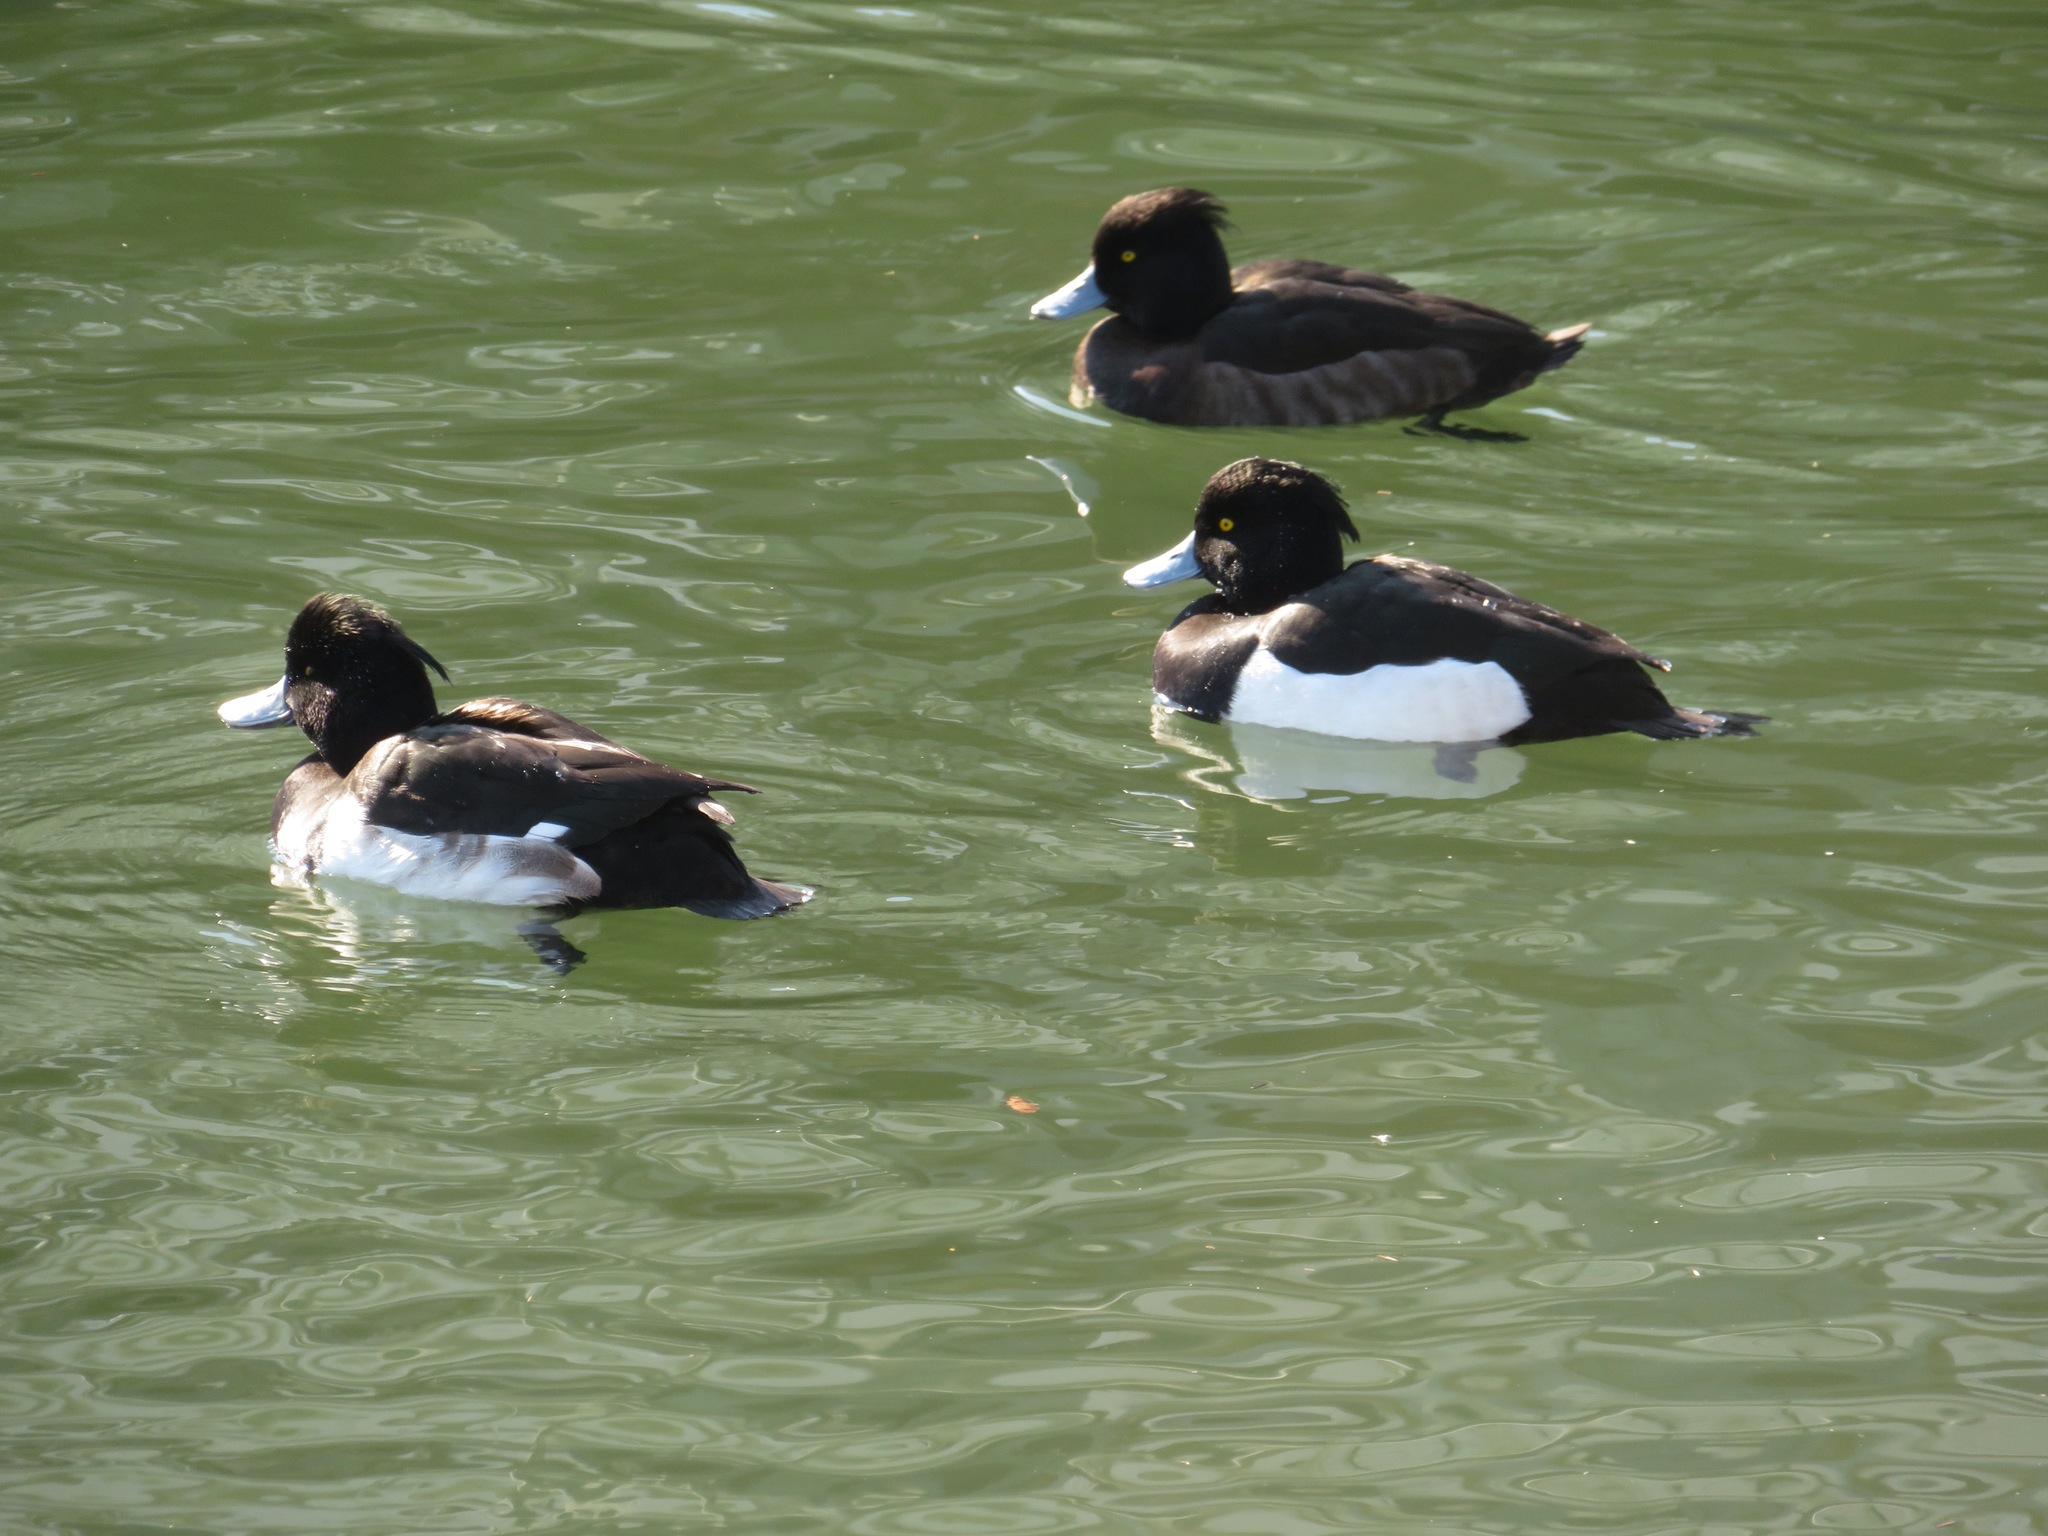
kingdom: Animalia
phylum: Chordata
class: Aves
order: Anseriformes
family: Anatidae
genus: Aythya
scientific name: Aythya fuligula
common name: Tufted duck
